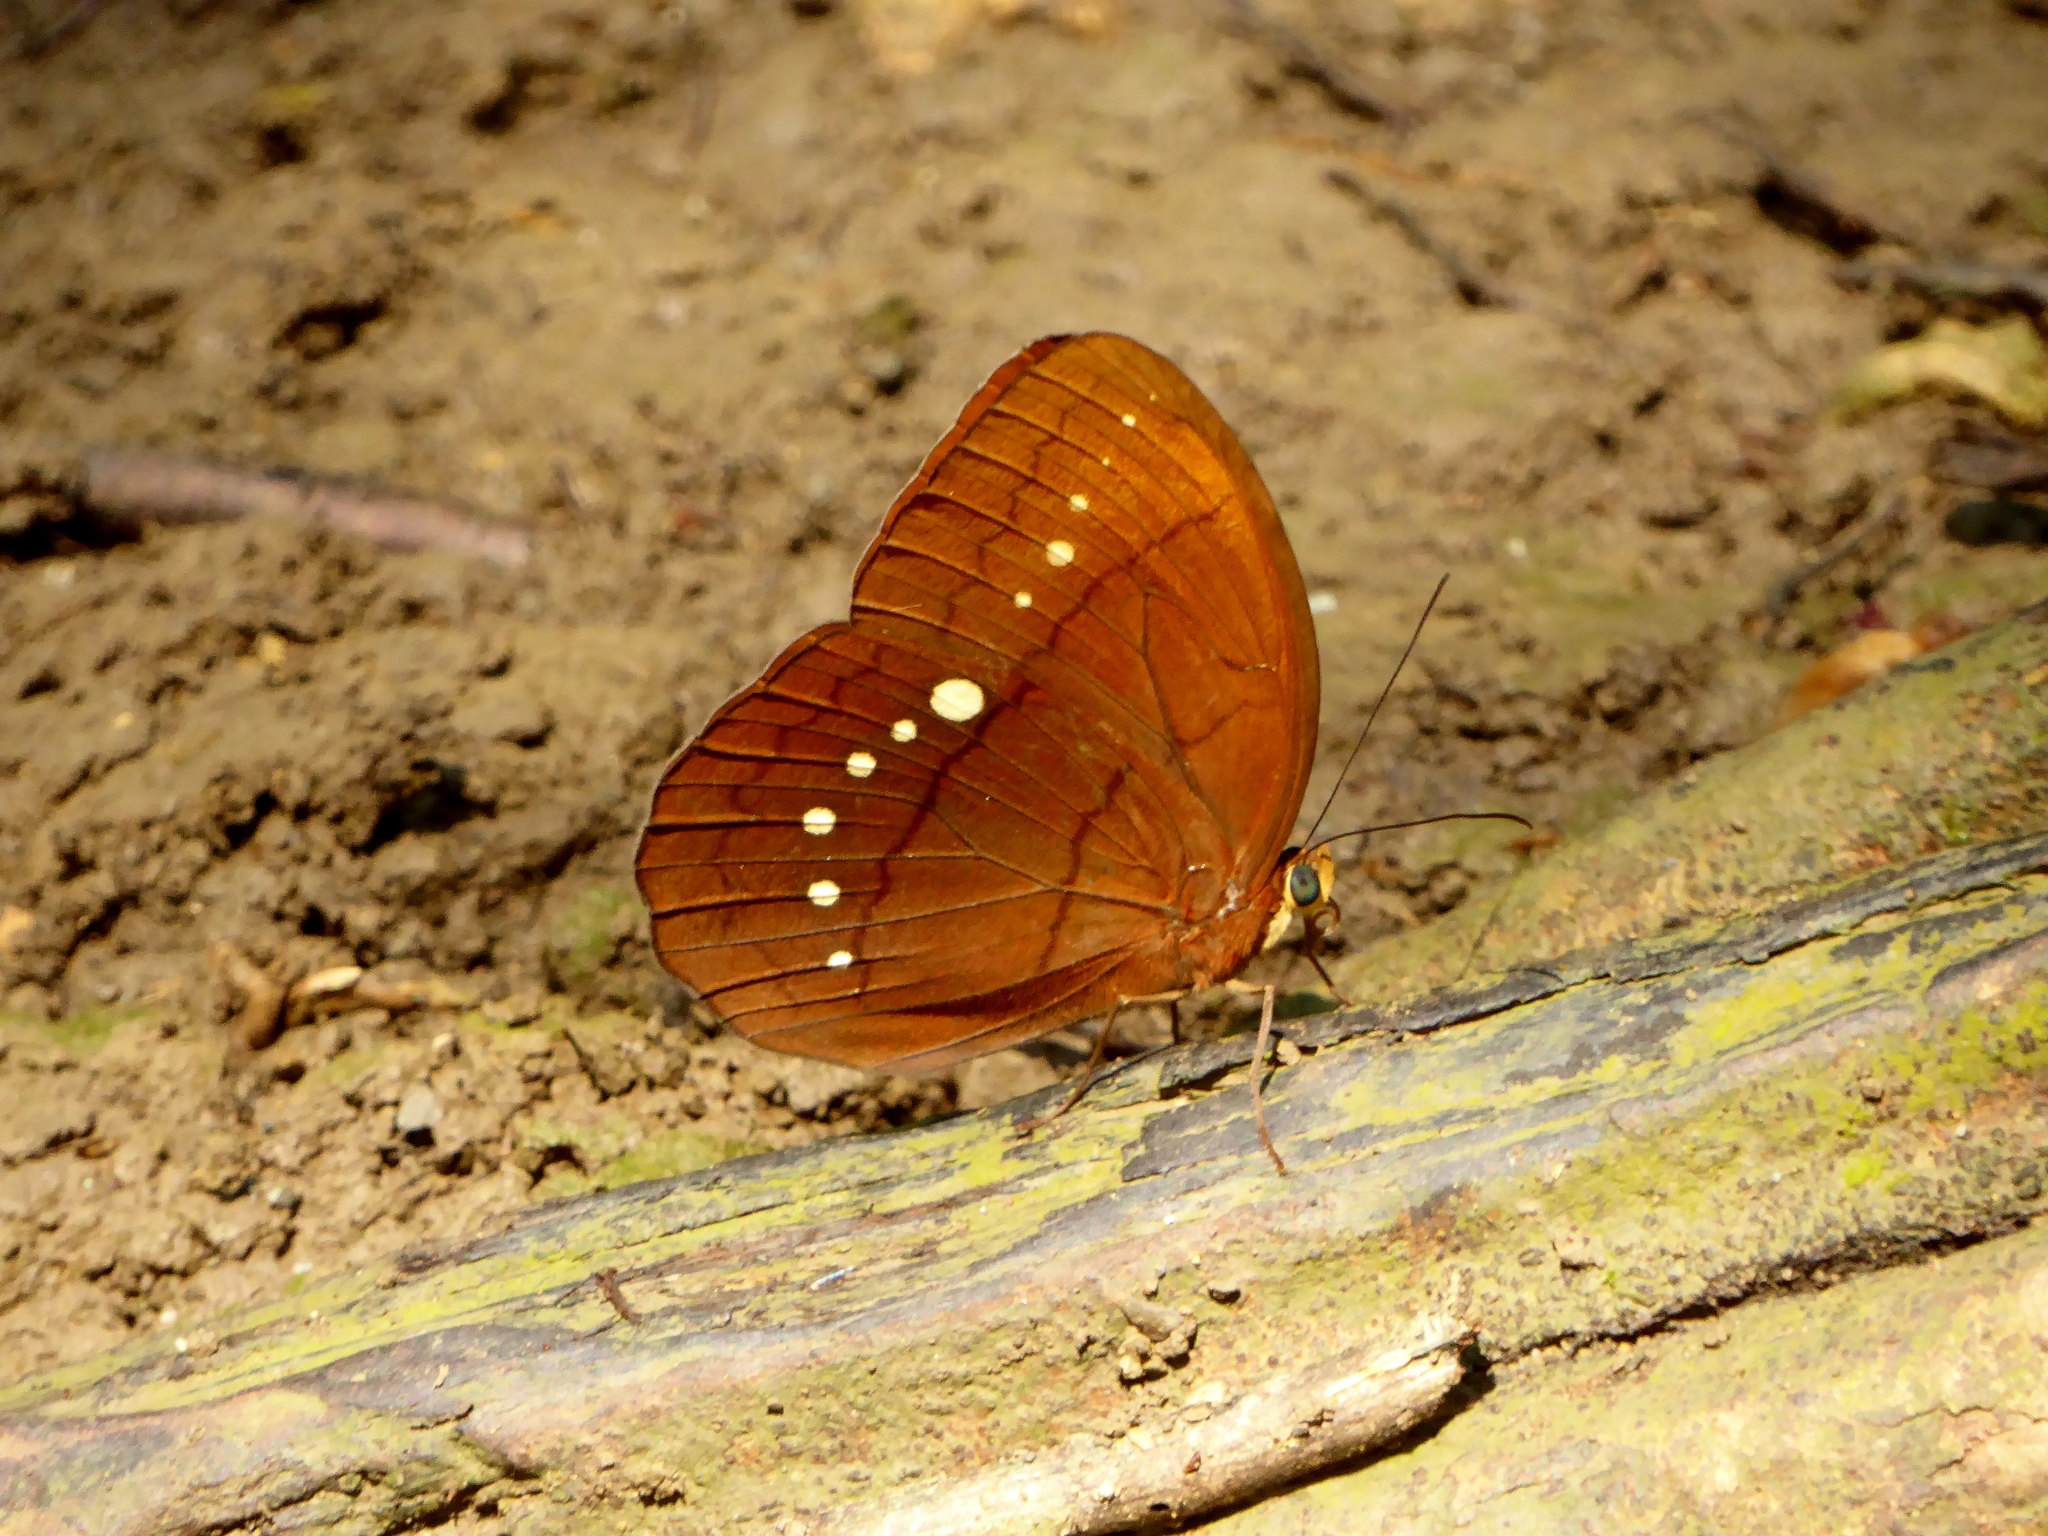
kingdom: Animalia
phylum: Arthropoda
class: Insecta
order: Lepidoptera
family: Nymphalidae
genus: Faunis
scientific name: Faunis eumeus
